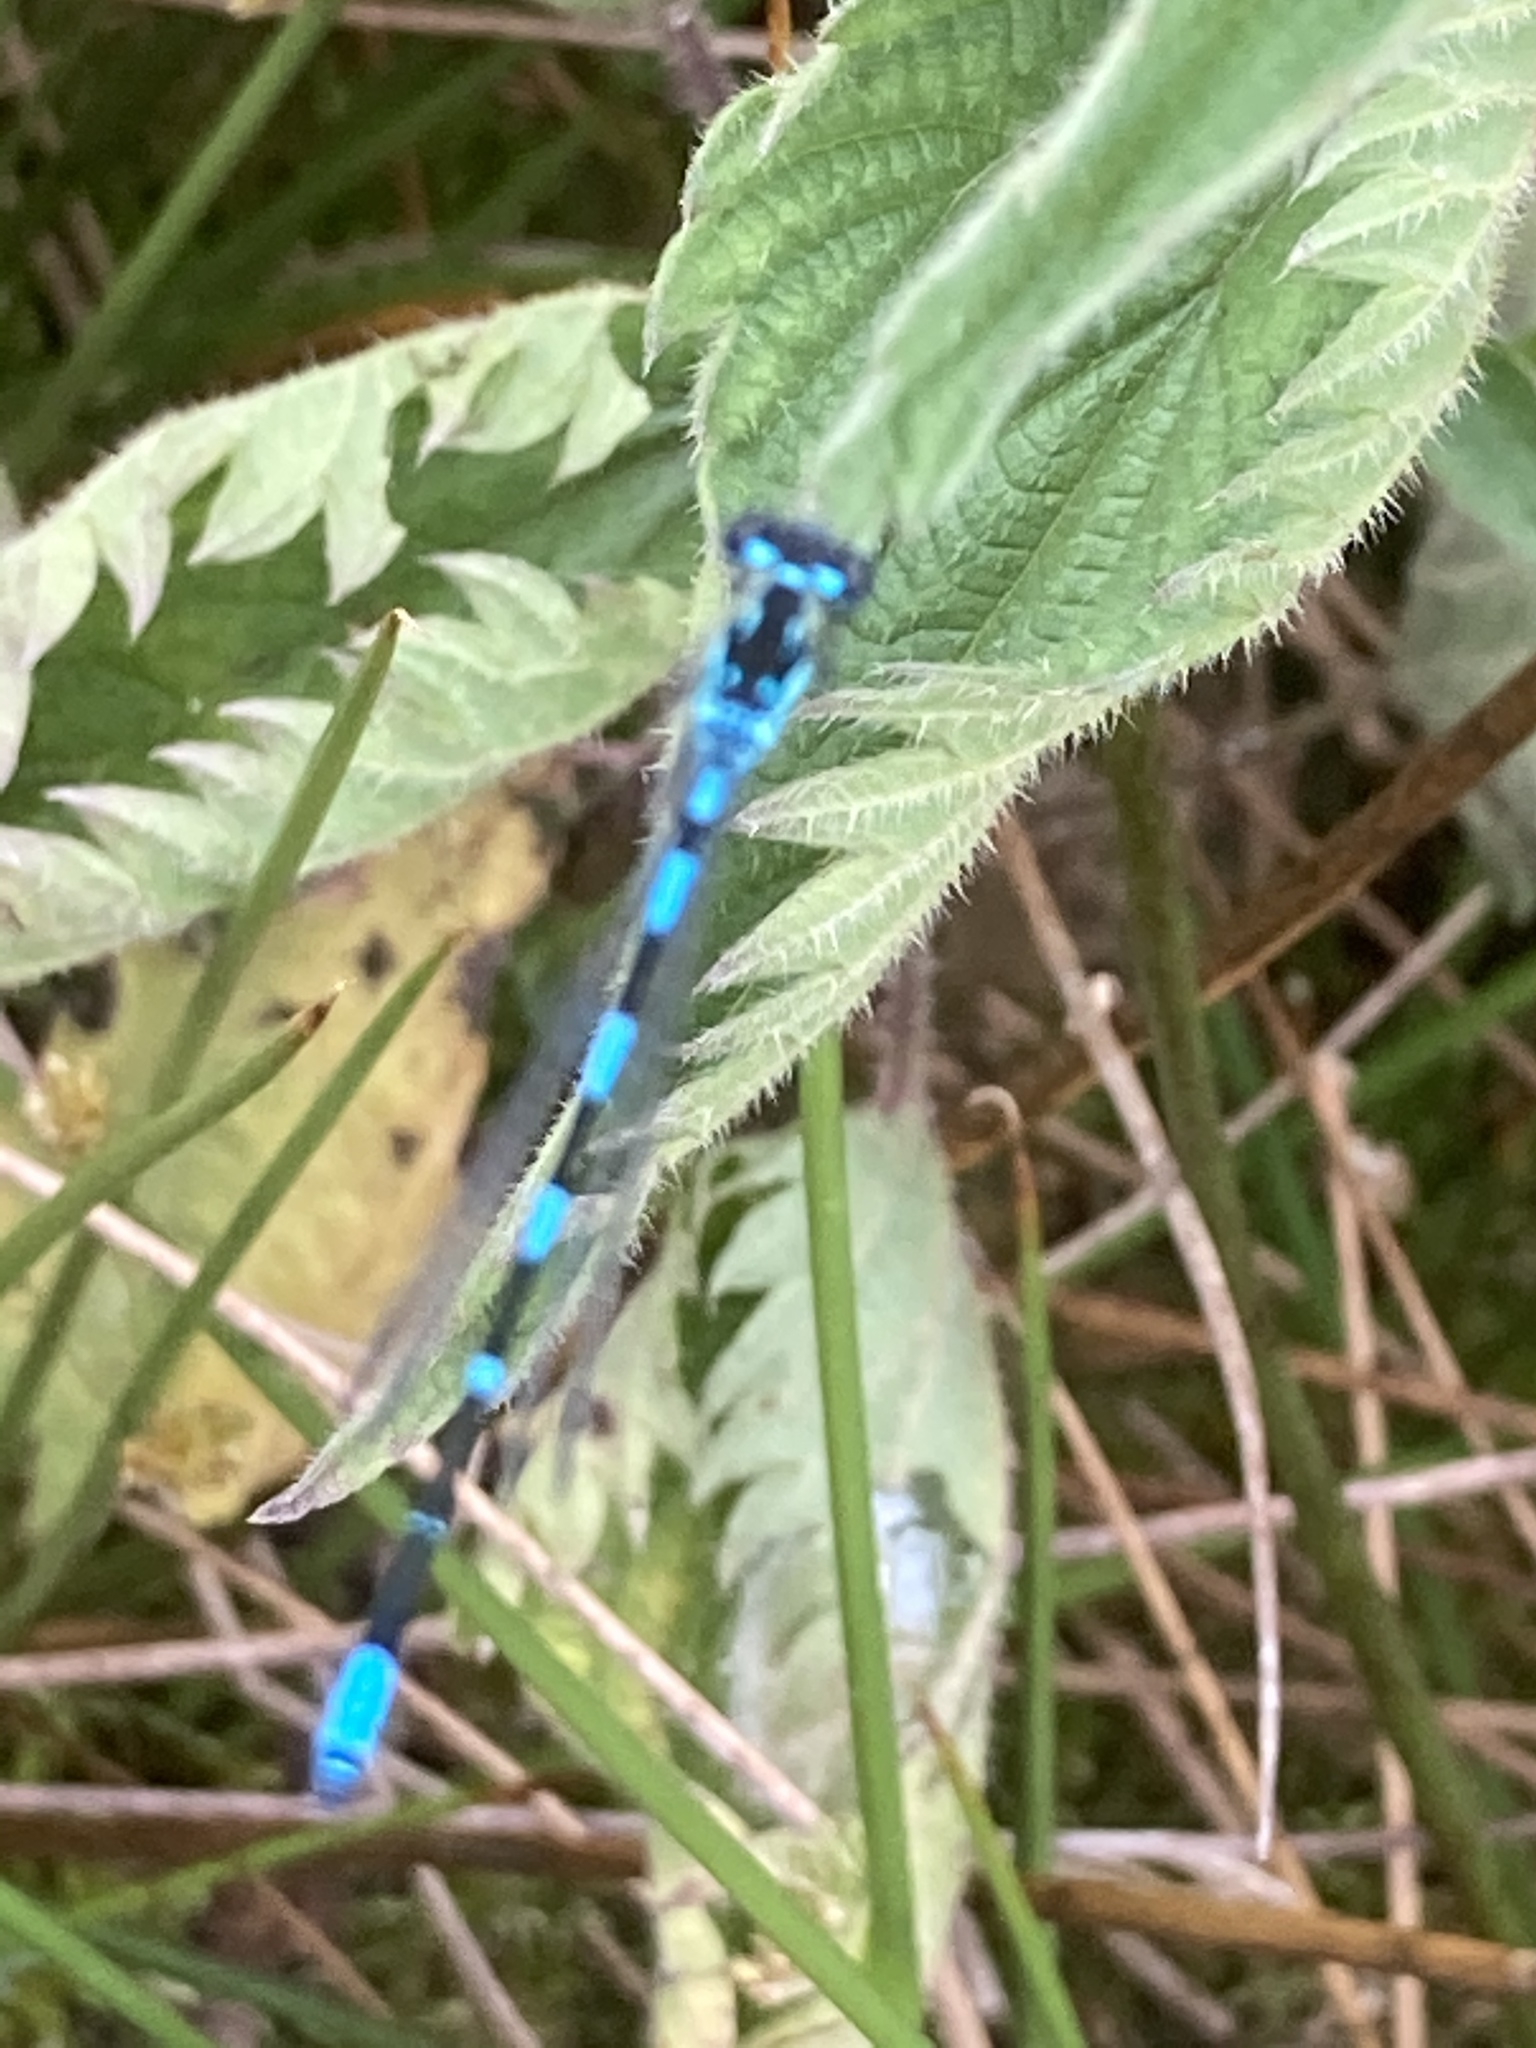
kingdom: Animalia
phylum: Arthropoda
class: Insecta
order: Odonata
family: Coenagrionidae
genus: Coenagrion
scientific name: Coenagrion pulchellum
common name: Variable bluet
